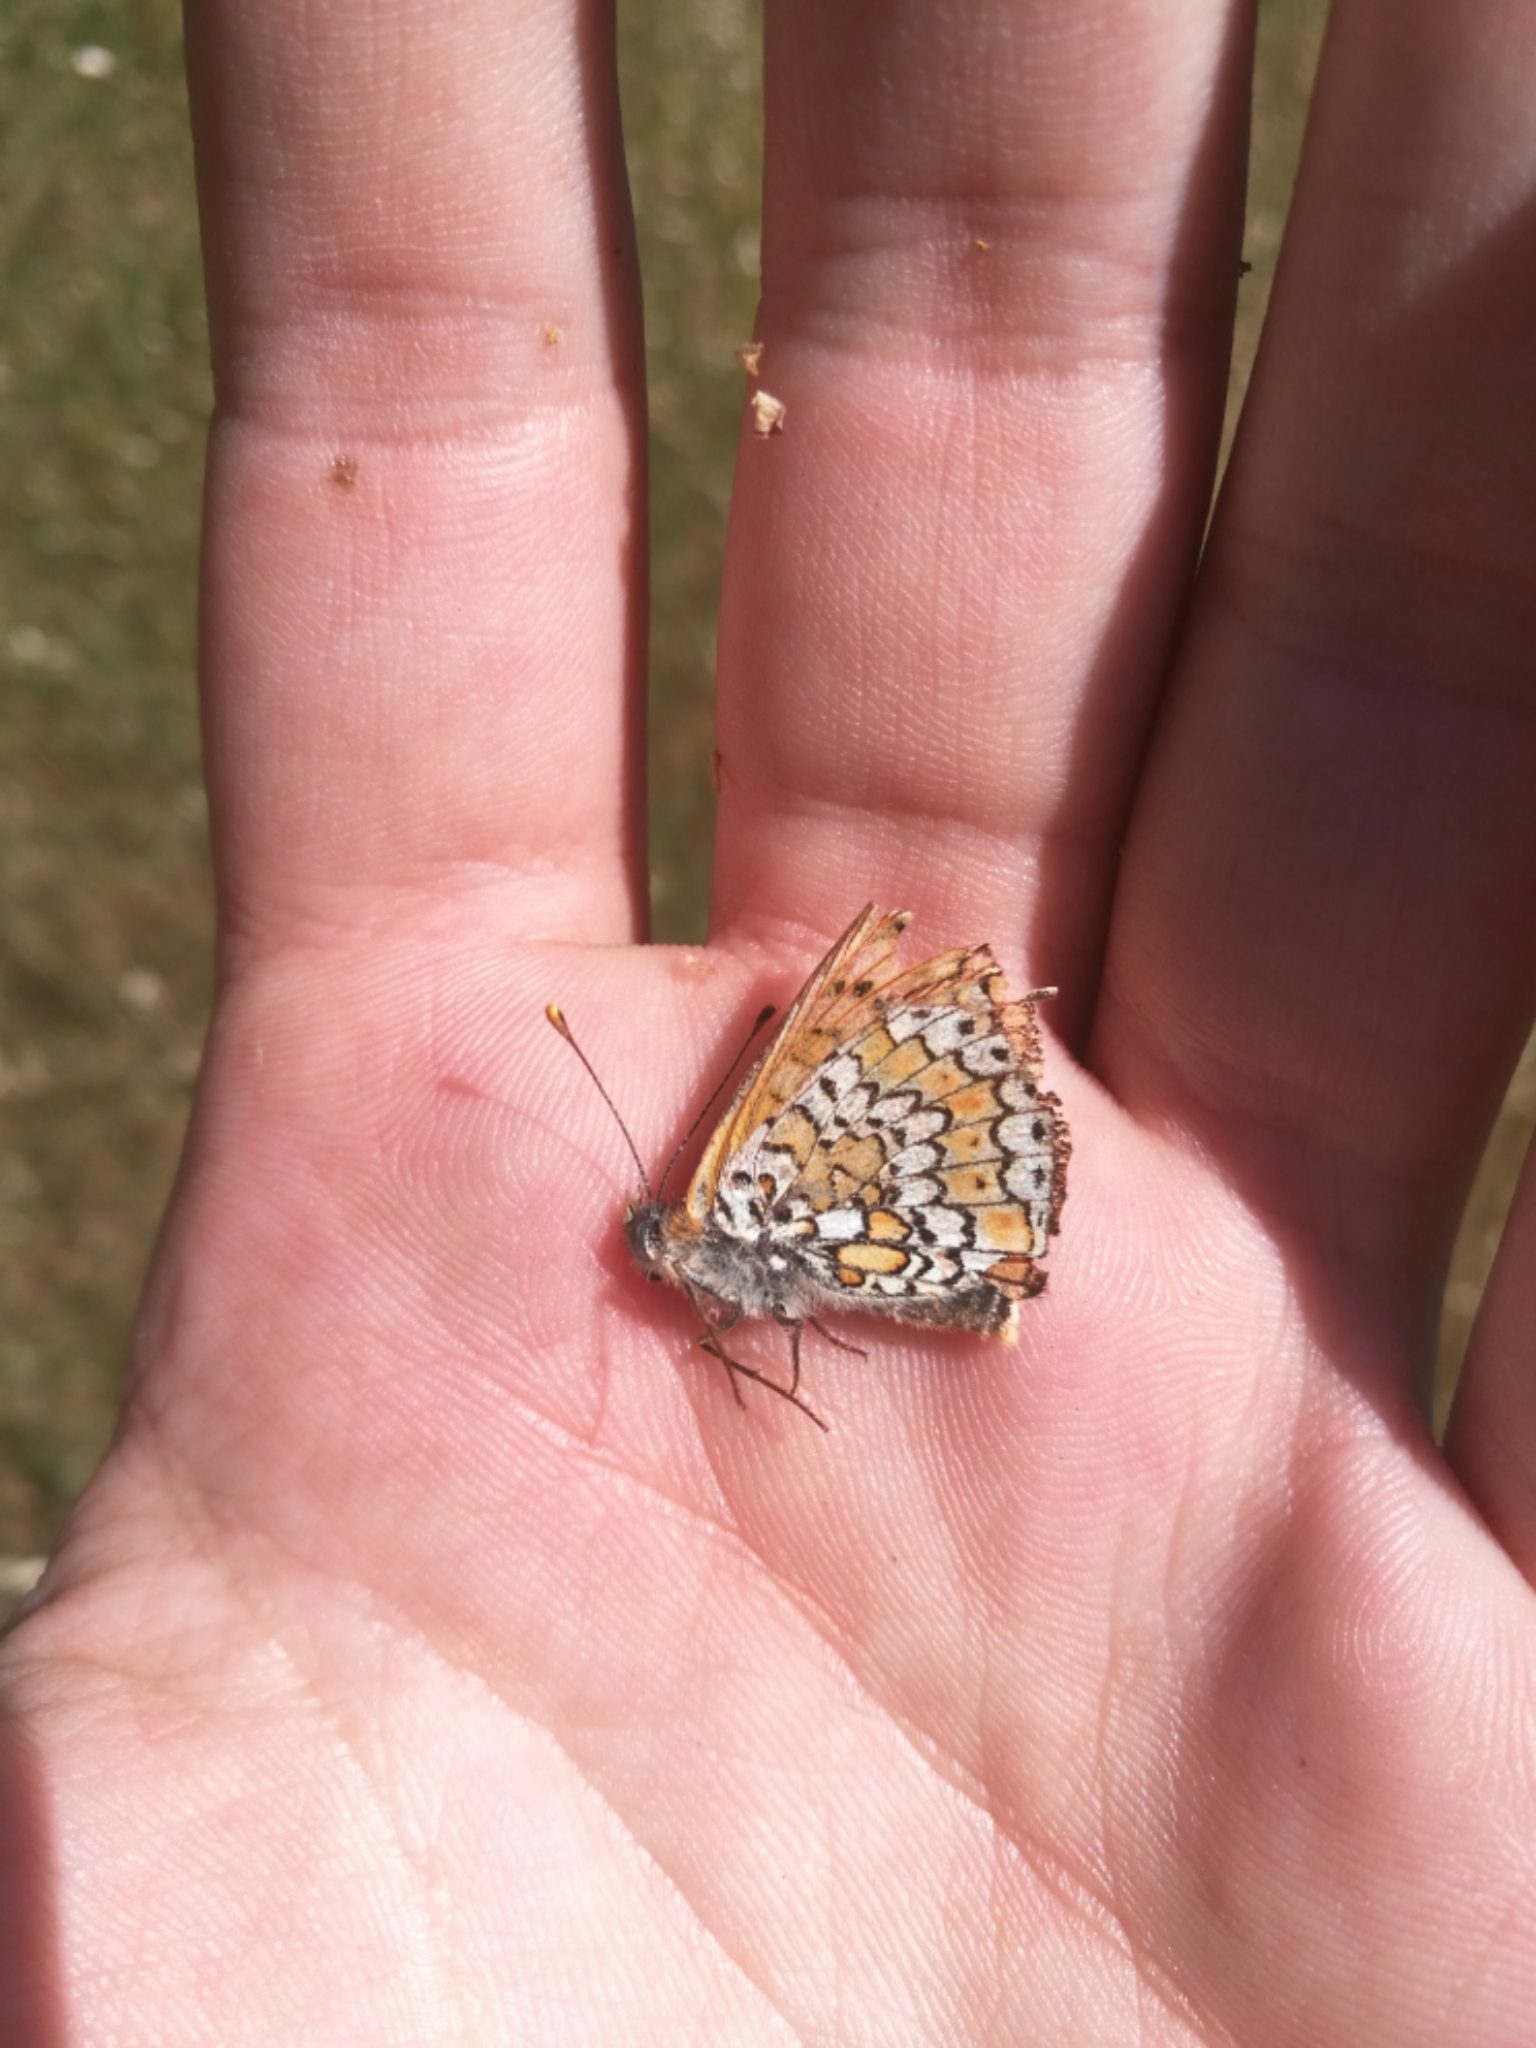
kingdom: Animalia
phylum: Arthropoda
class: Insecta
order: Lepidoptera
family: Nymphalidae
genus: Melitaea
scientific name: Melitaea cinxia
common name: Glanville fritillary
